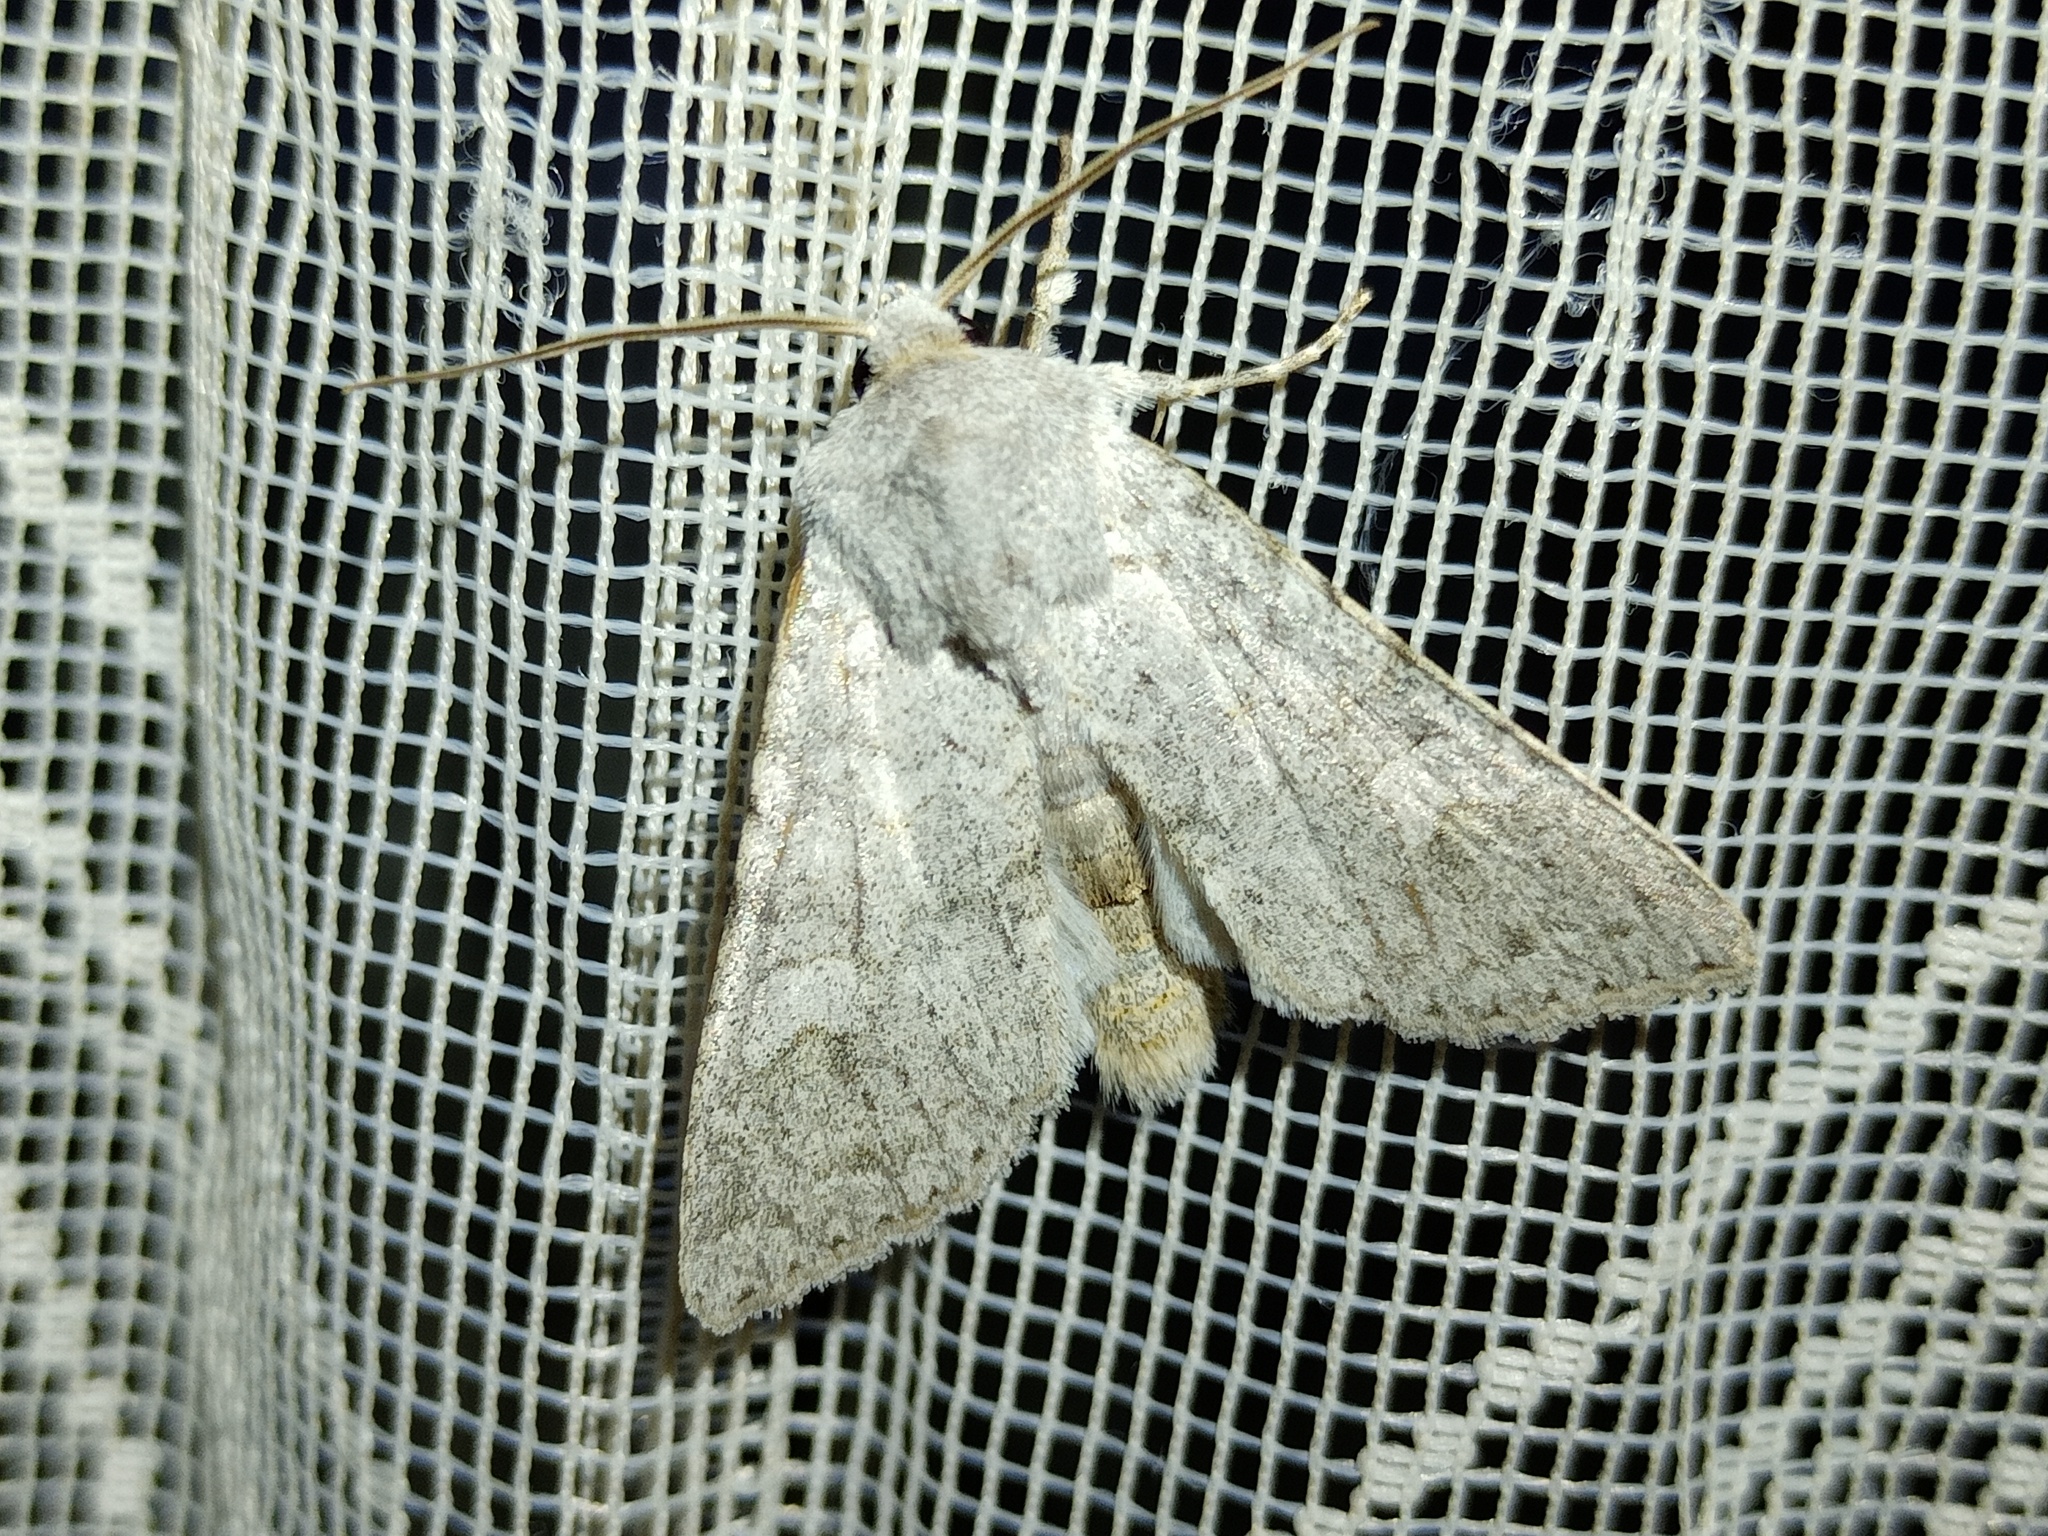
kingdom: Animalia
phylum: Arthropoda
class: Insecta
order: Lepidoptera
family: Noctuidae
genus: Ammoconia
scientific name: Ammoconia senex
